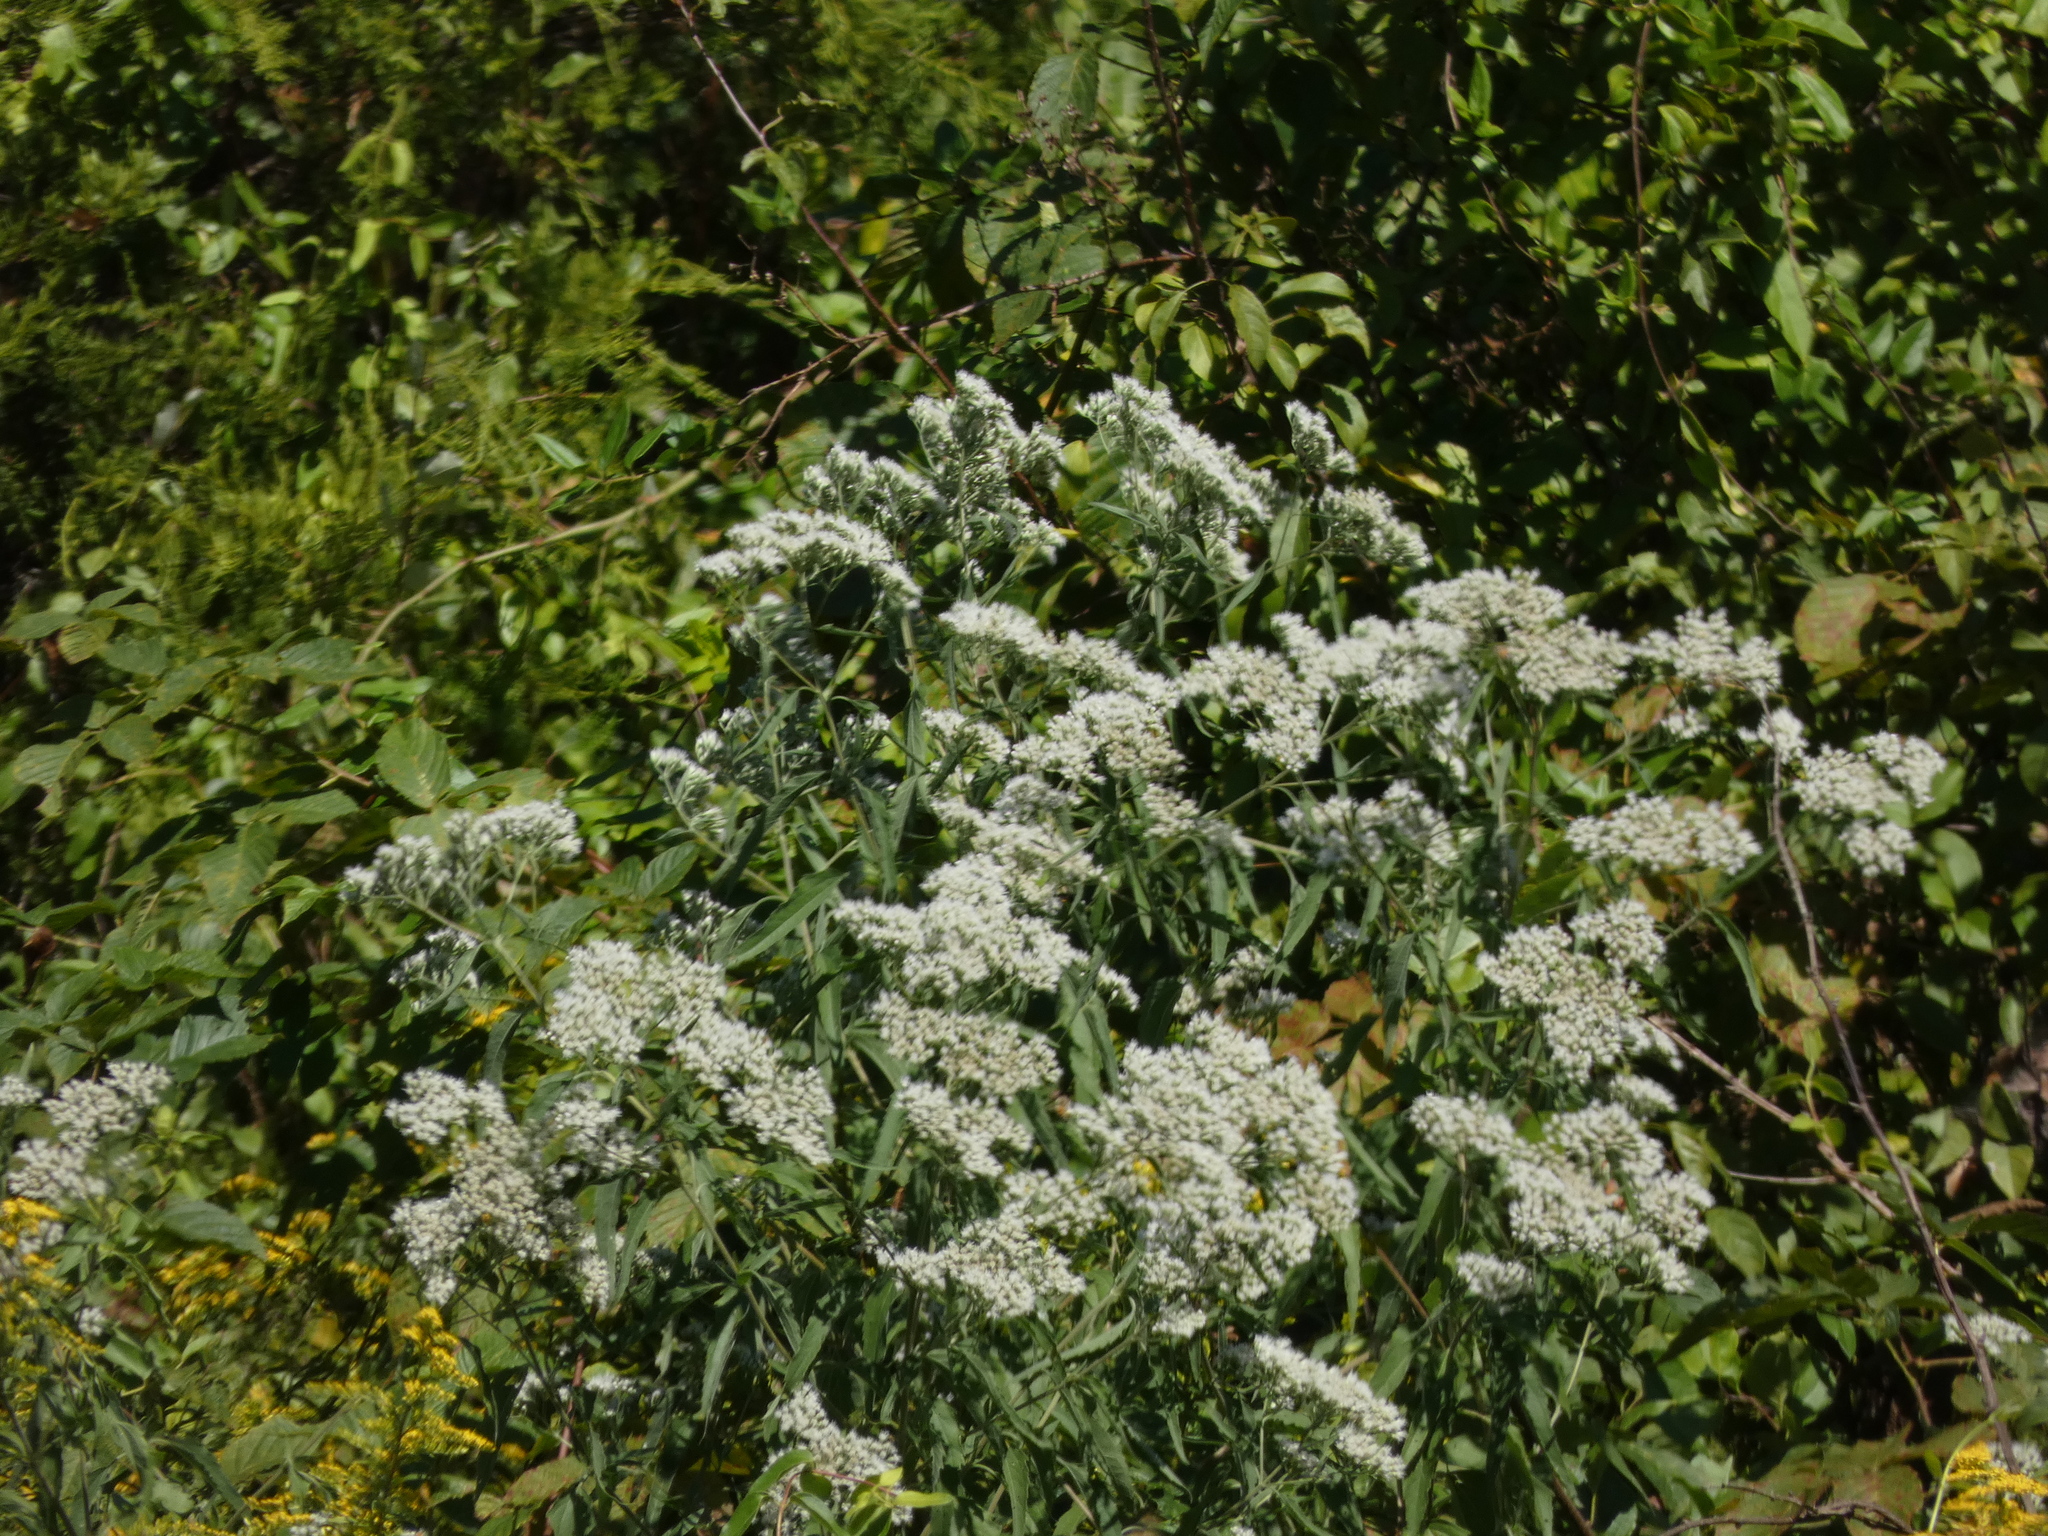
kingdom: Plantae
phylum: Tracheophyta
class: Magnoliopsida
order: Asterales
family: Asteraceae
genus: Eupatorium
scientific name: Eupatorium serotinum
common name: Late boneset
